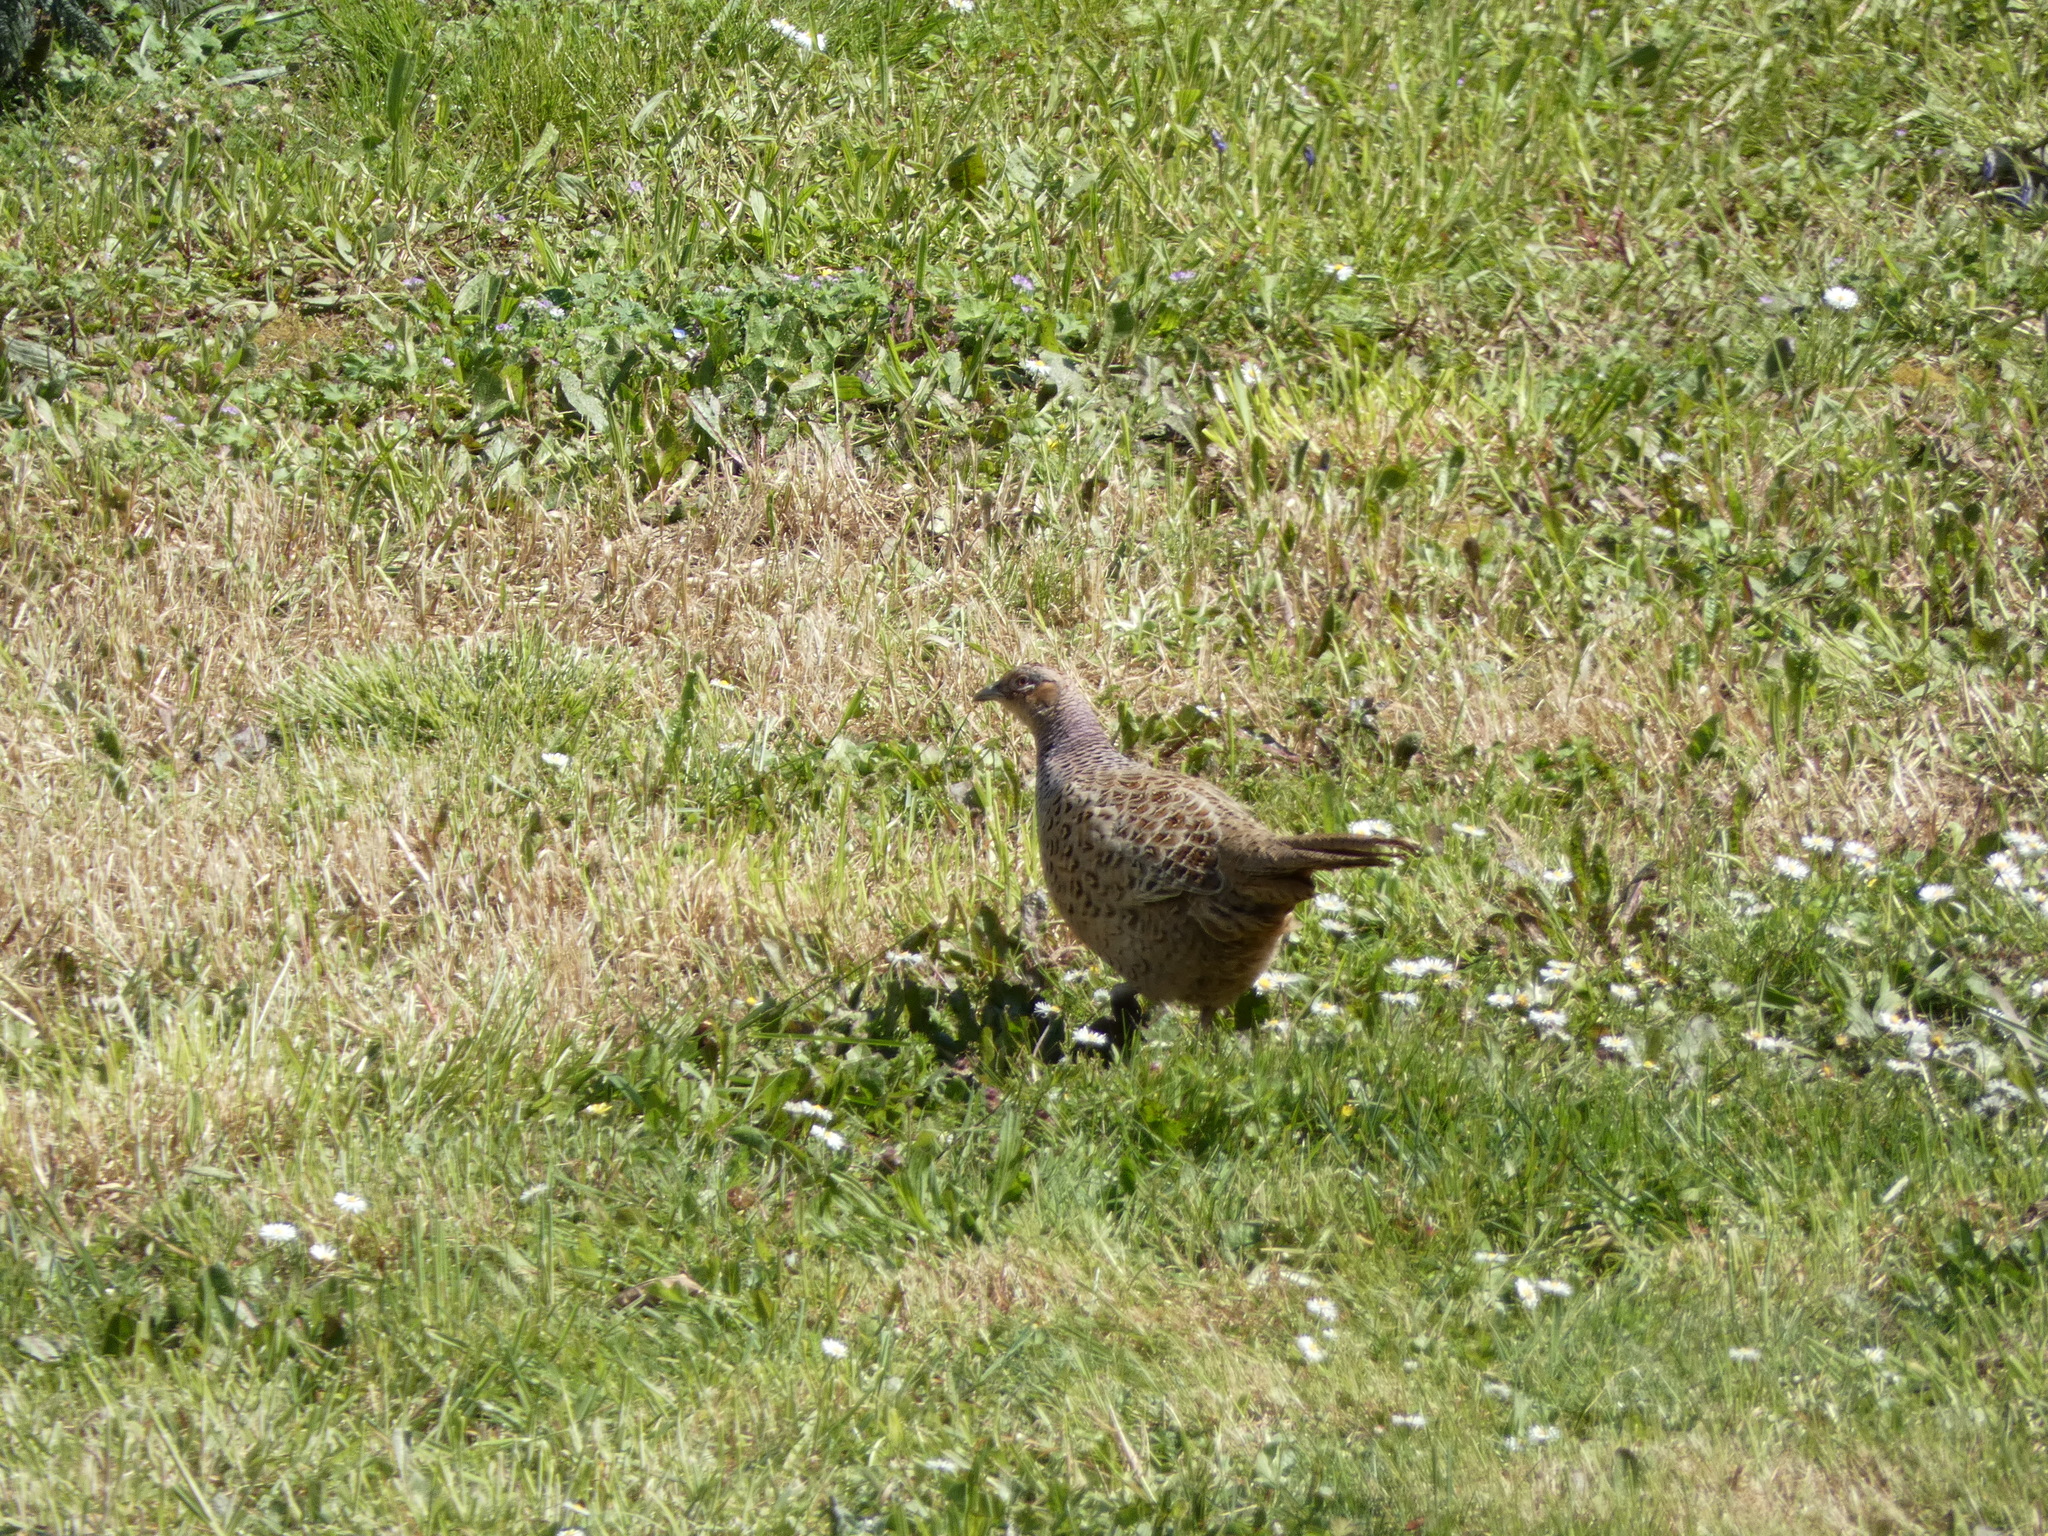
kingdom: Animalia
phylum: Chordata
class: Aves
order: Galliformes
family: Phasianidae
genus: Phasianus
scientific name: Phasianus colchicus
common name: Common pheasant
